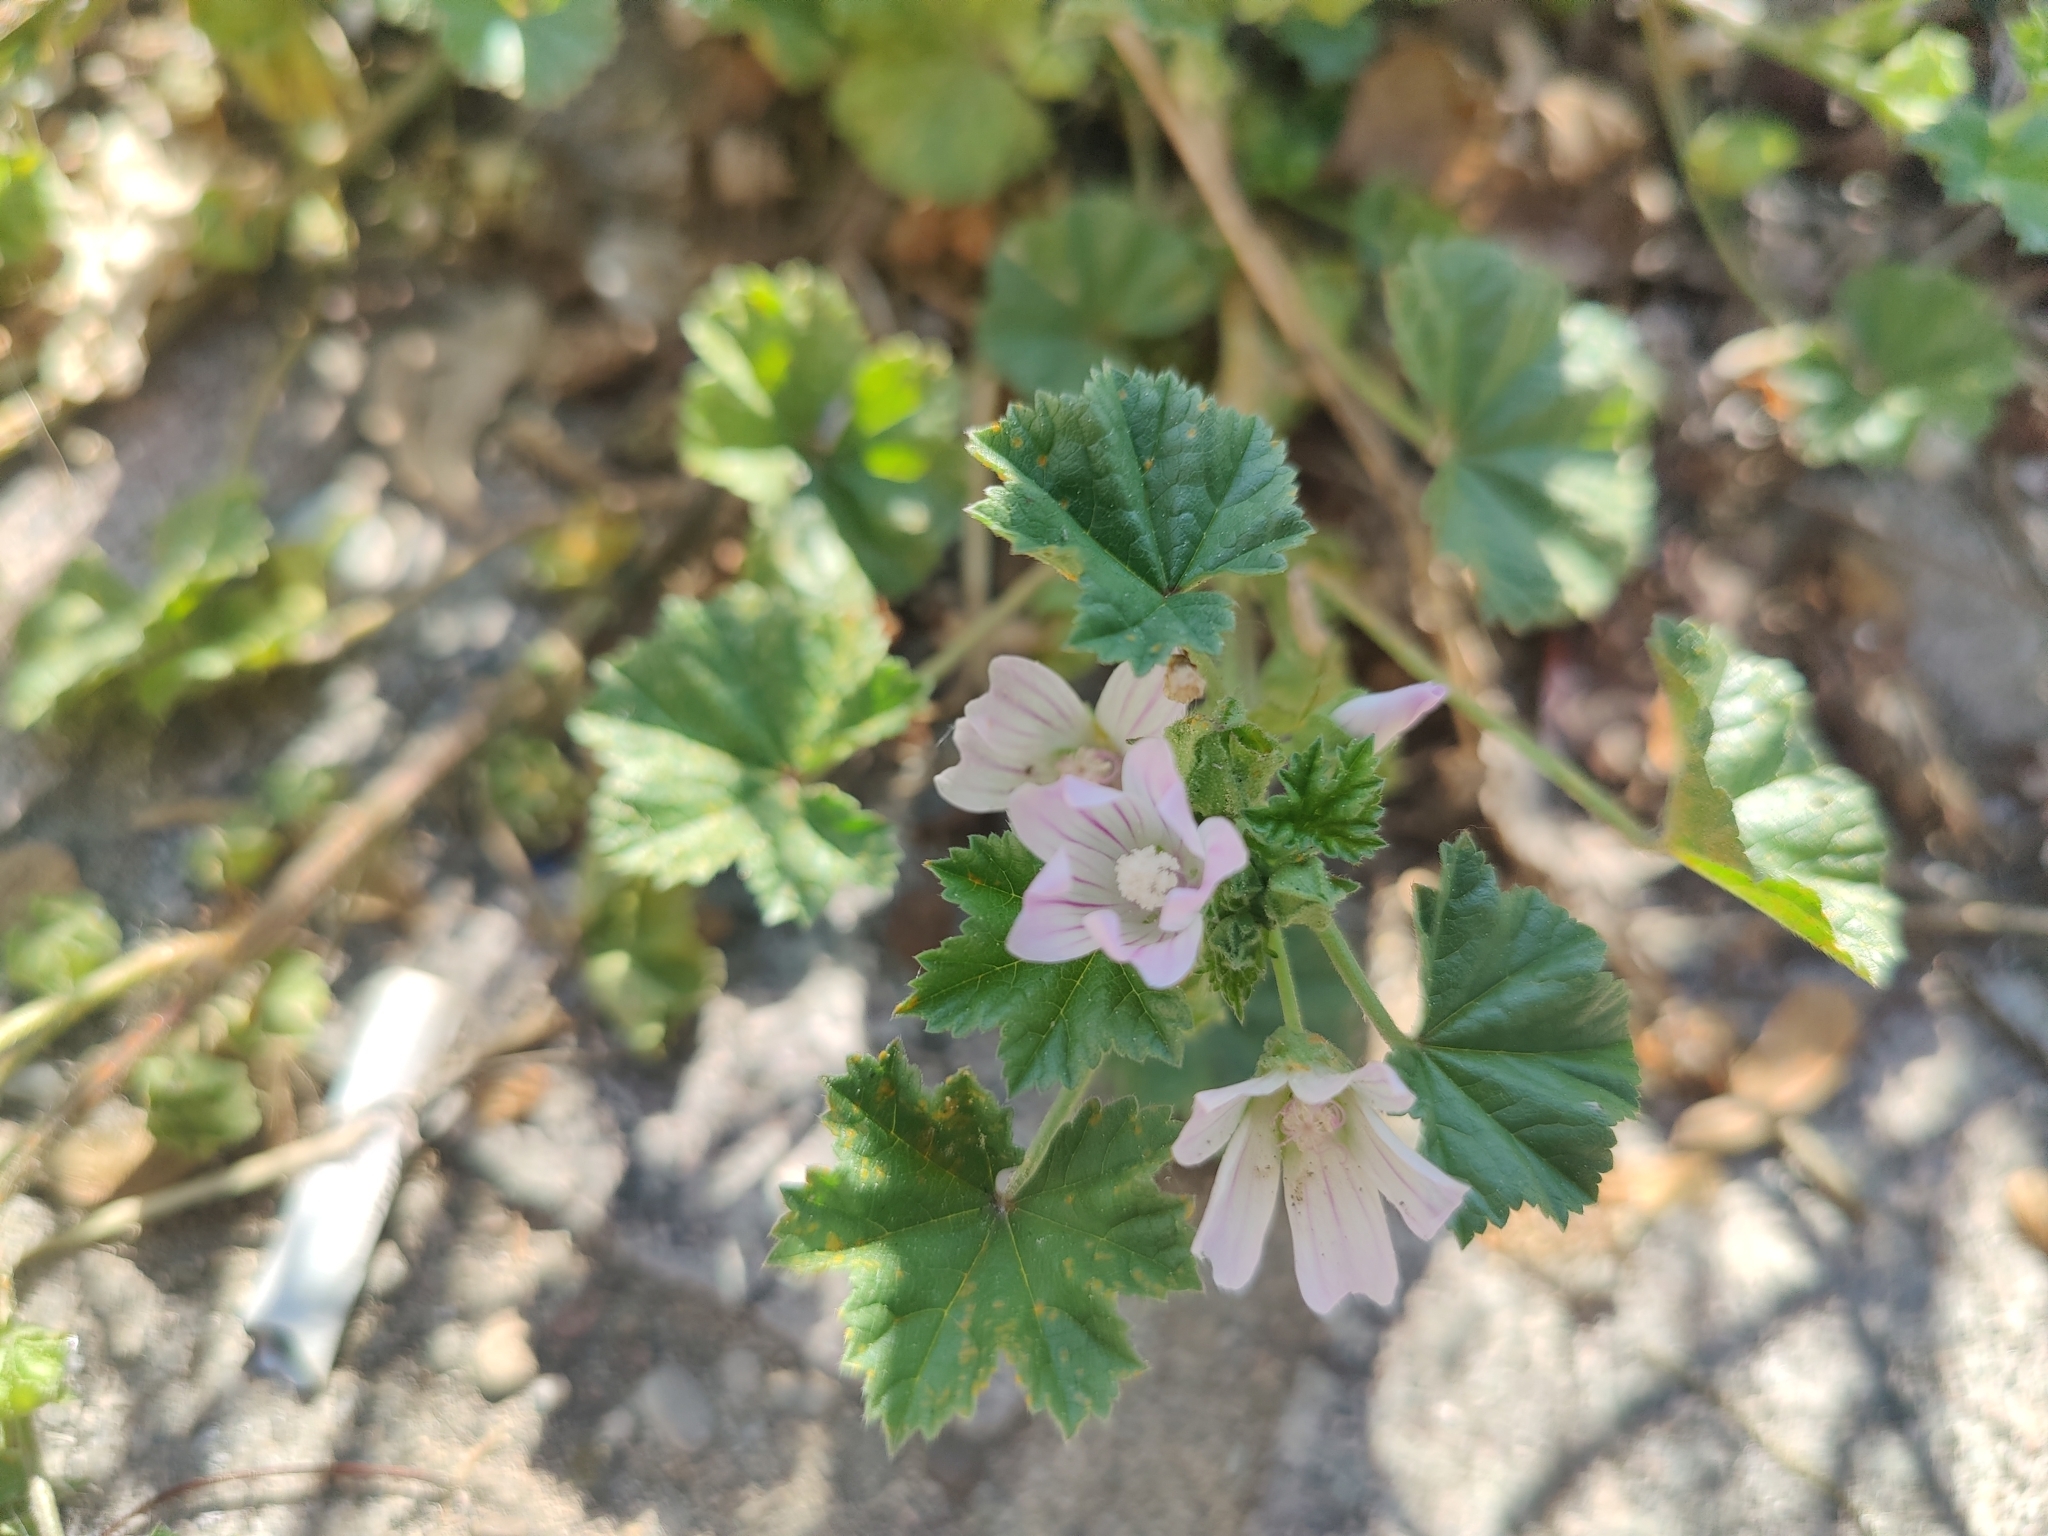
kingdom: Plantae
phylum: Tracheophyta
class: Magnoliopsida
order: Malvales
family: Malvaceae
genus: Malva
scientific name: Malva neglecta
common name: Common mallow
